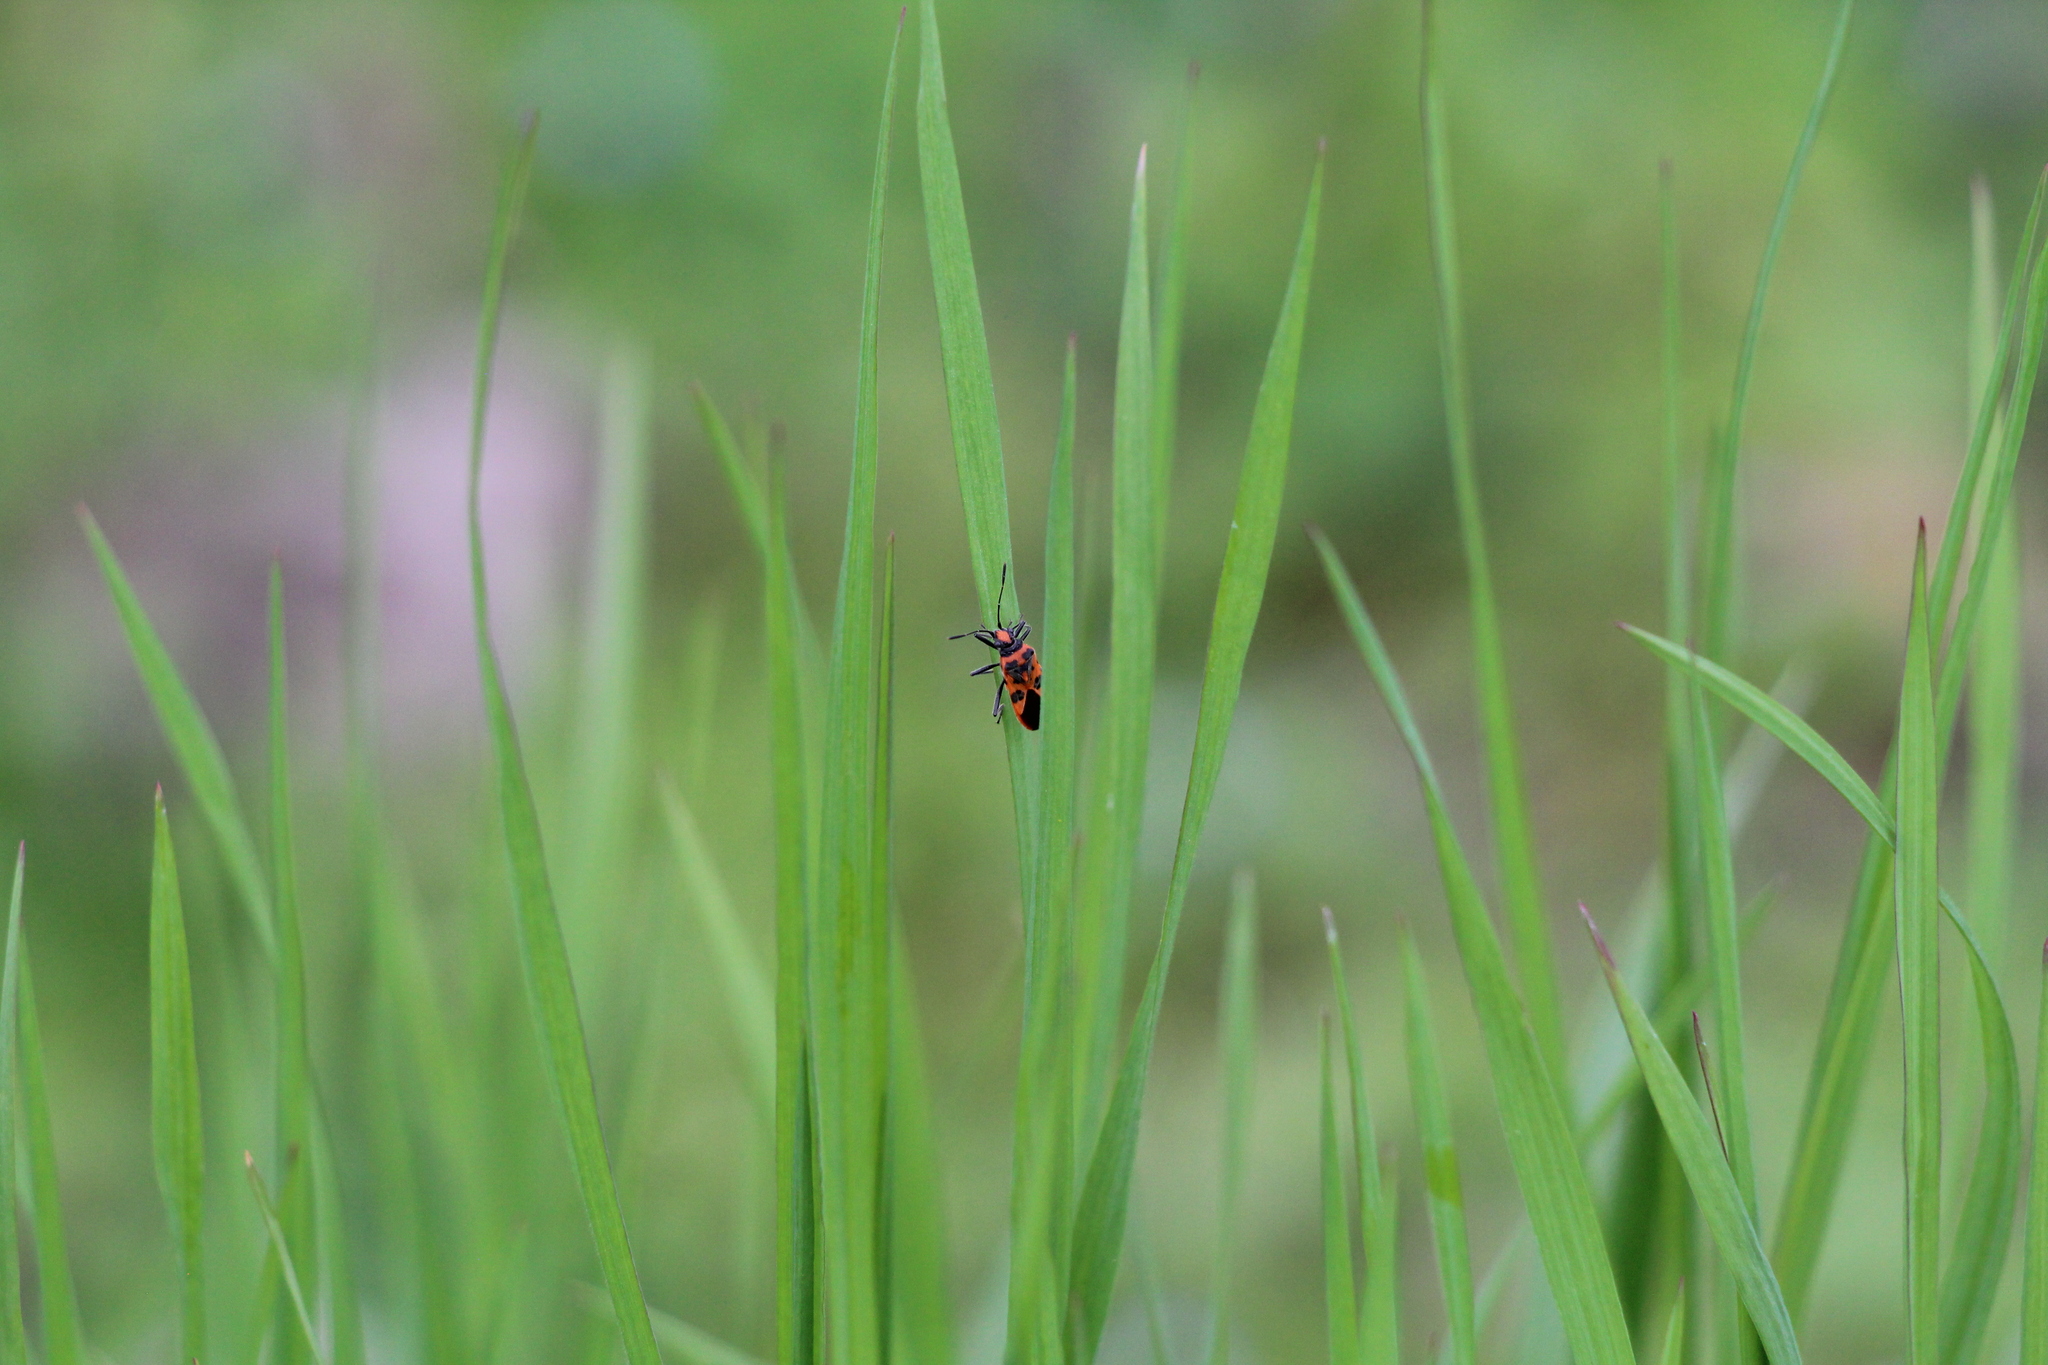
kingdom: Animalia
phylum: Arthropoda
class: Insecta
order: Hemiptera
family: Rhopalidae
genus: Corizus
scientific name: Corizus hyoscyami
